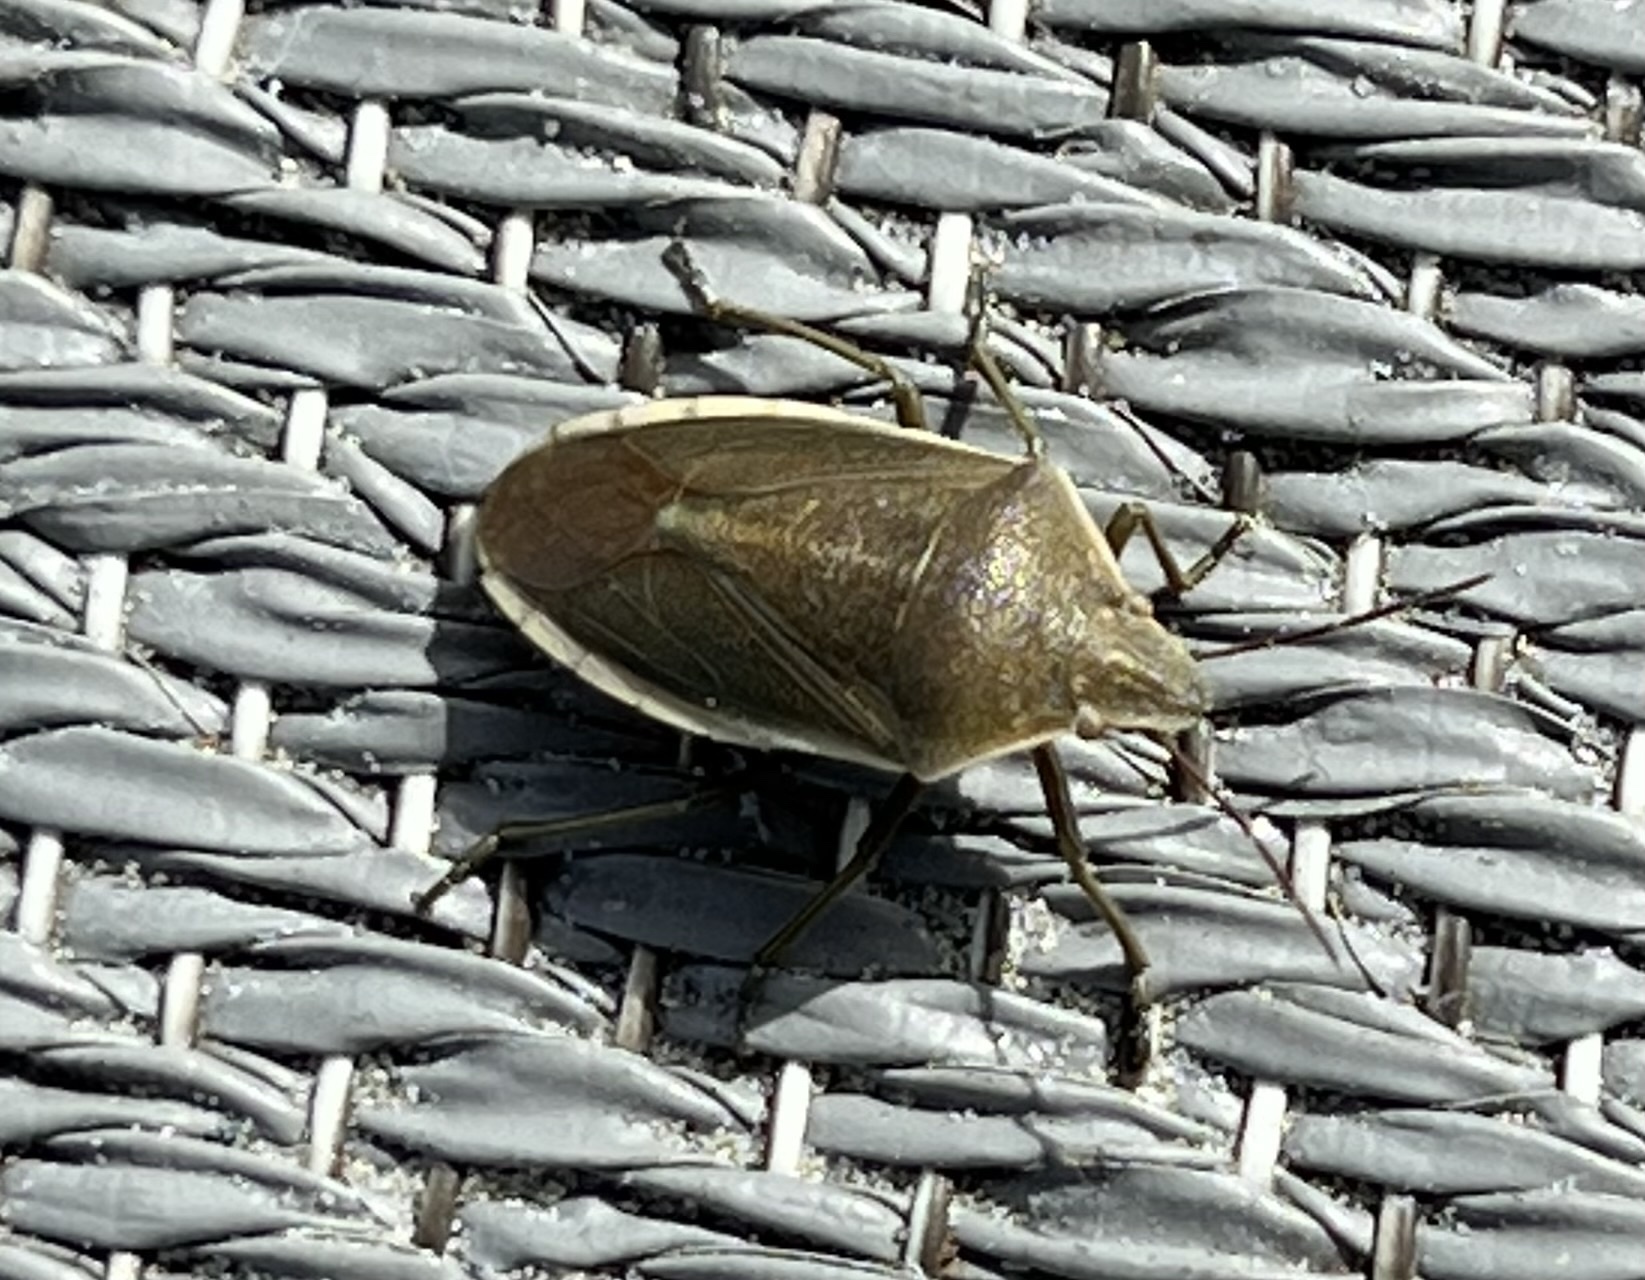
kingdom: Animalia
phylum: Arthropoda
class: Insecta
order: Hemiptera
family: Pentatomidae
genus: Chlorochroa
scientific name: Chlorochroa senilis
